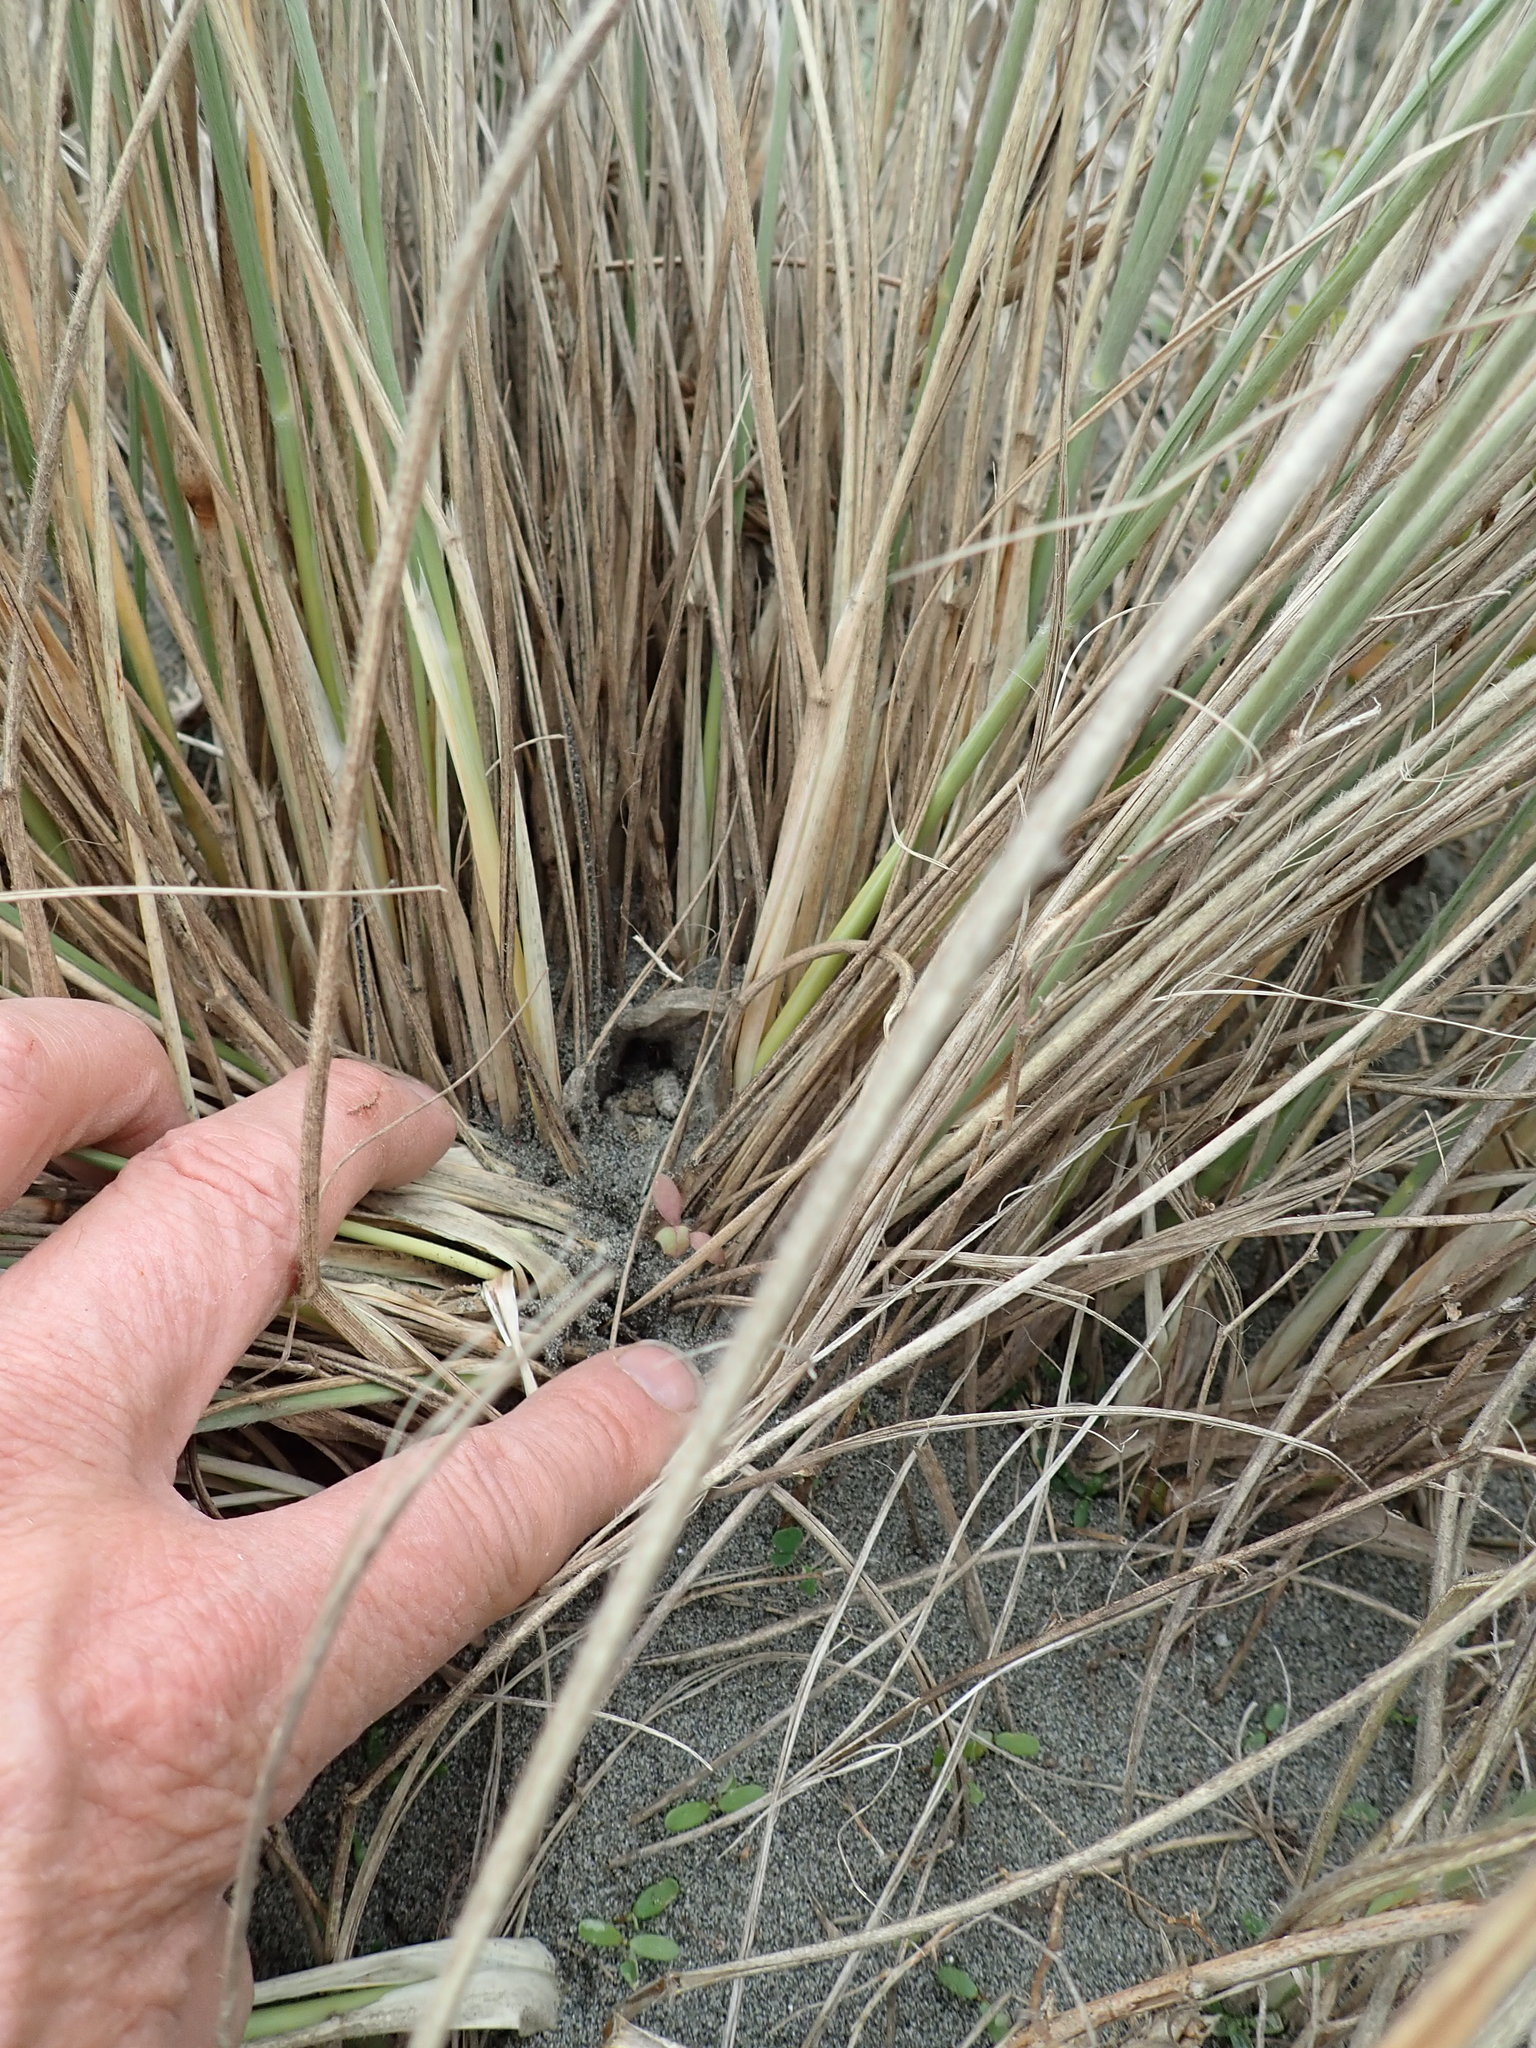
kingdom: Animalia
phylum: Arthropoda
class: Arachnida
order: Araneae
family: Theridiidae
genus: Steatoda
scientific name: Steatoda capensis
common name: Cobweb weaver
